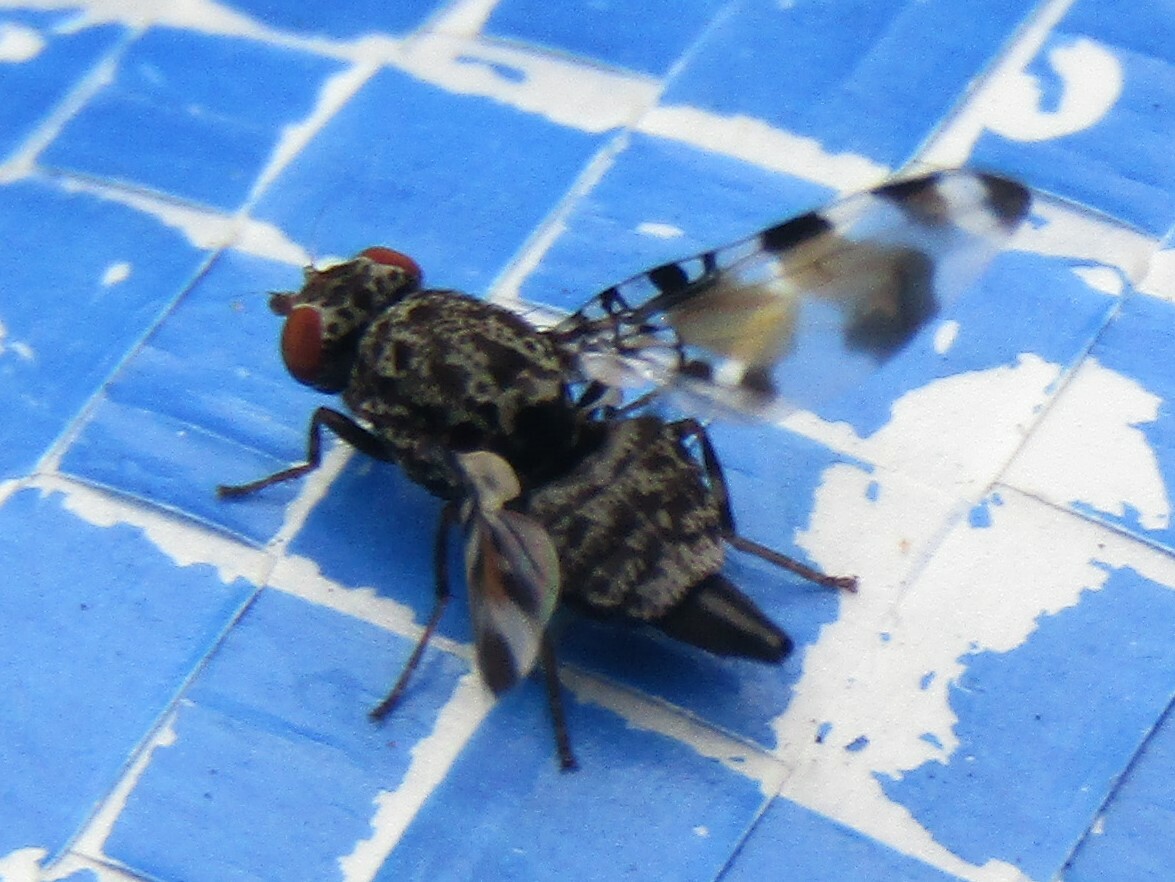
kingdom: Animalia
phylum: Arthropoda
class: Insecta
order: Diptera
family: Ulidiidae
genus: Pseudotephritis
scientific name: Pseudotephritis vau
